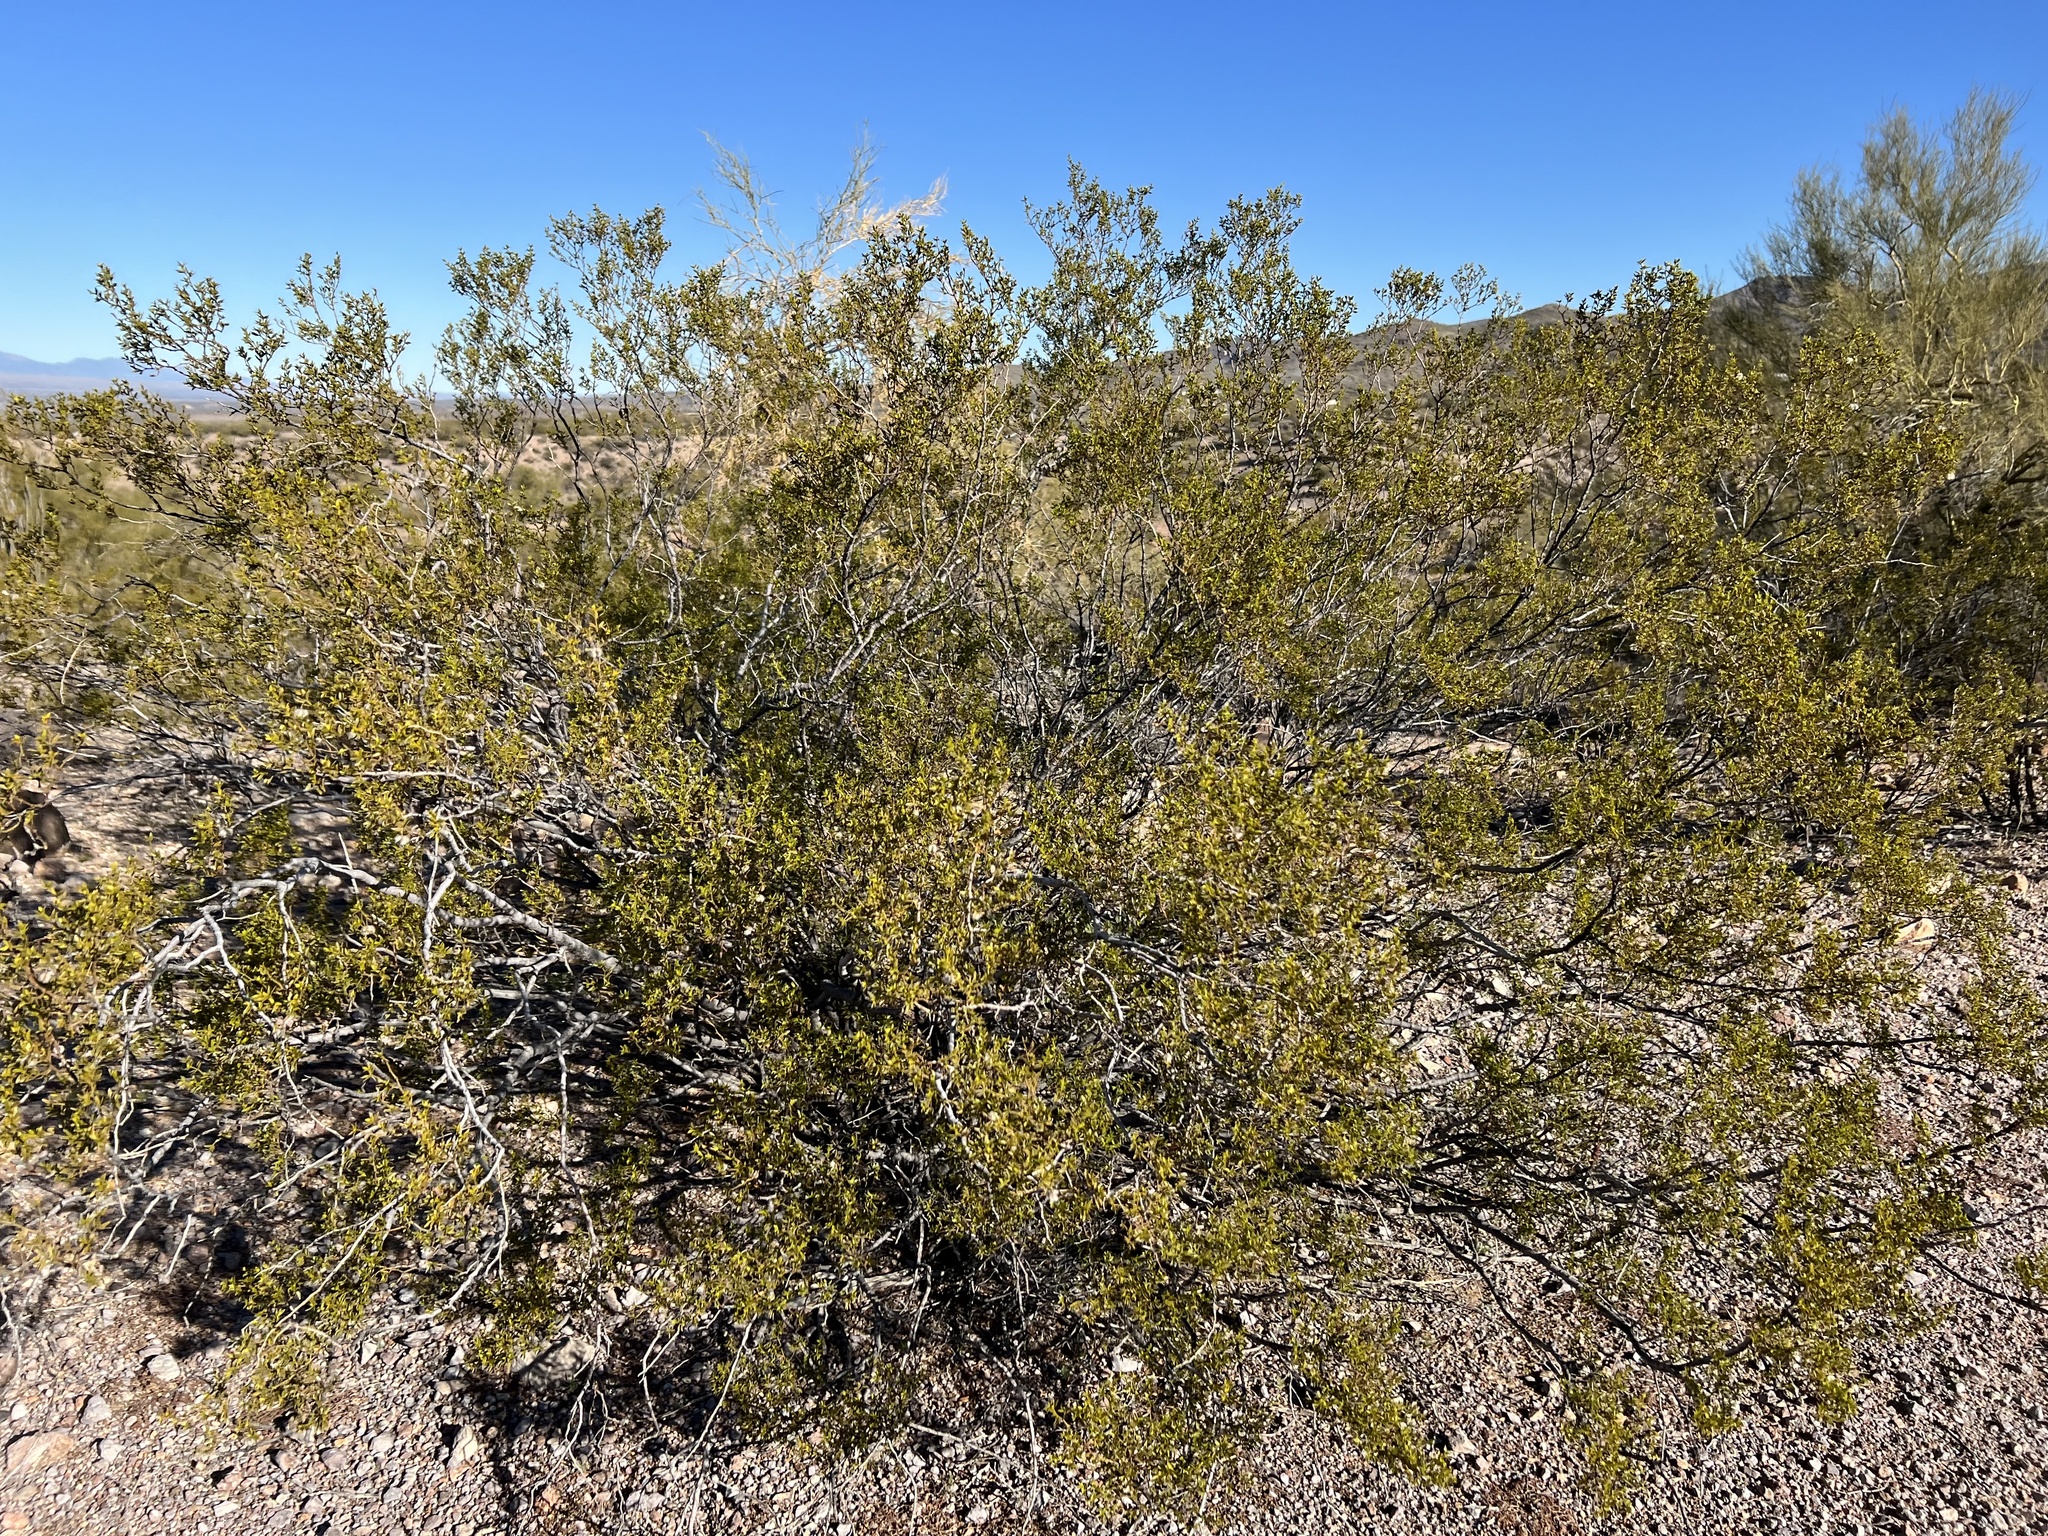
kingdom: Plantae
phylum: Tracheophyta
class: Magnoliopsida
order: Zygophyllales
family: Zygophyllaceae
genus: Larrea
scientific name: Larrea tridentata
